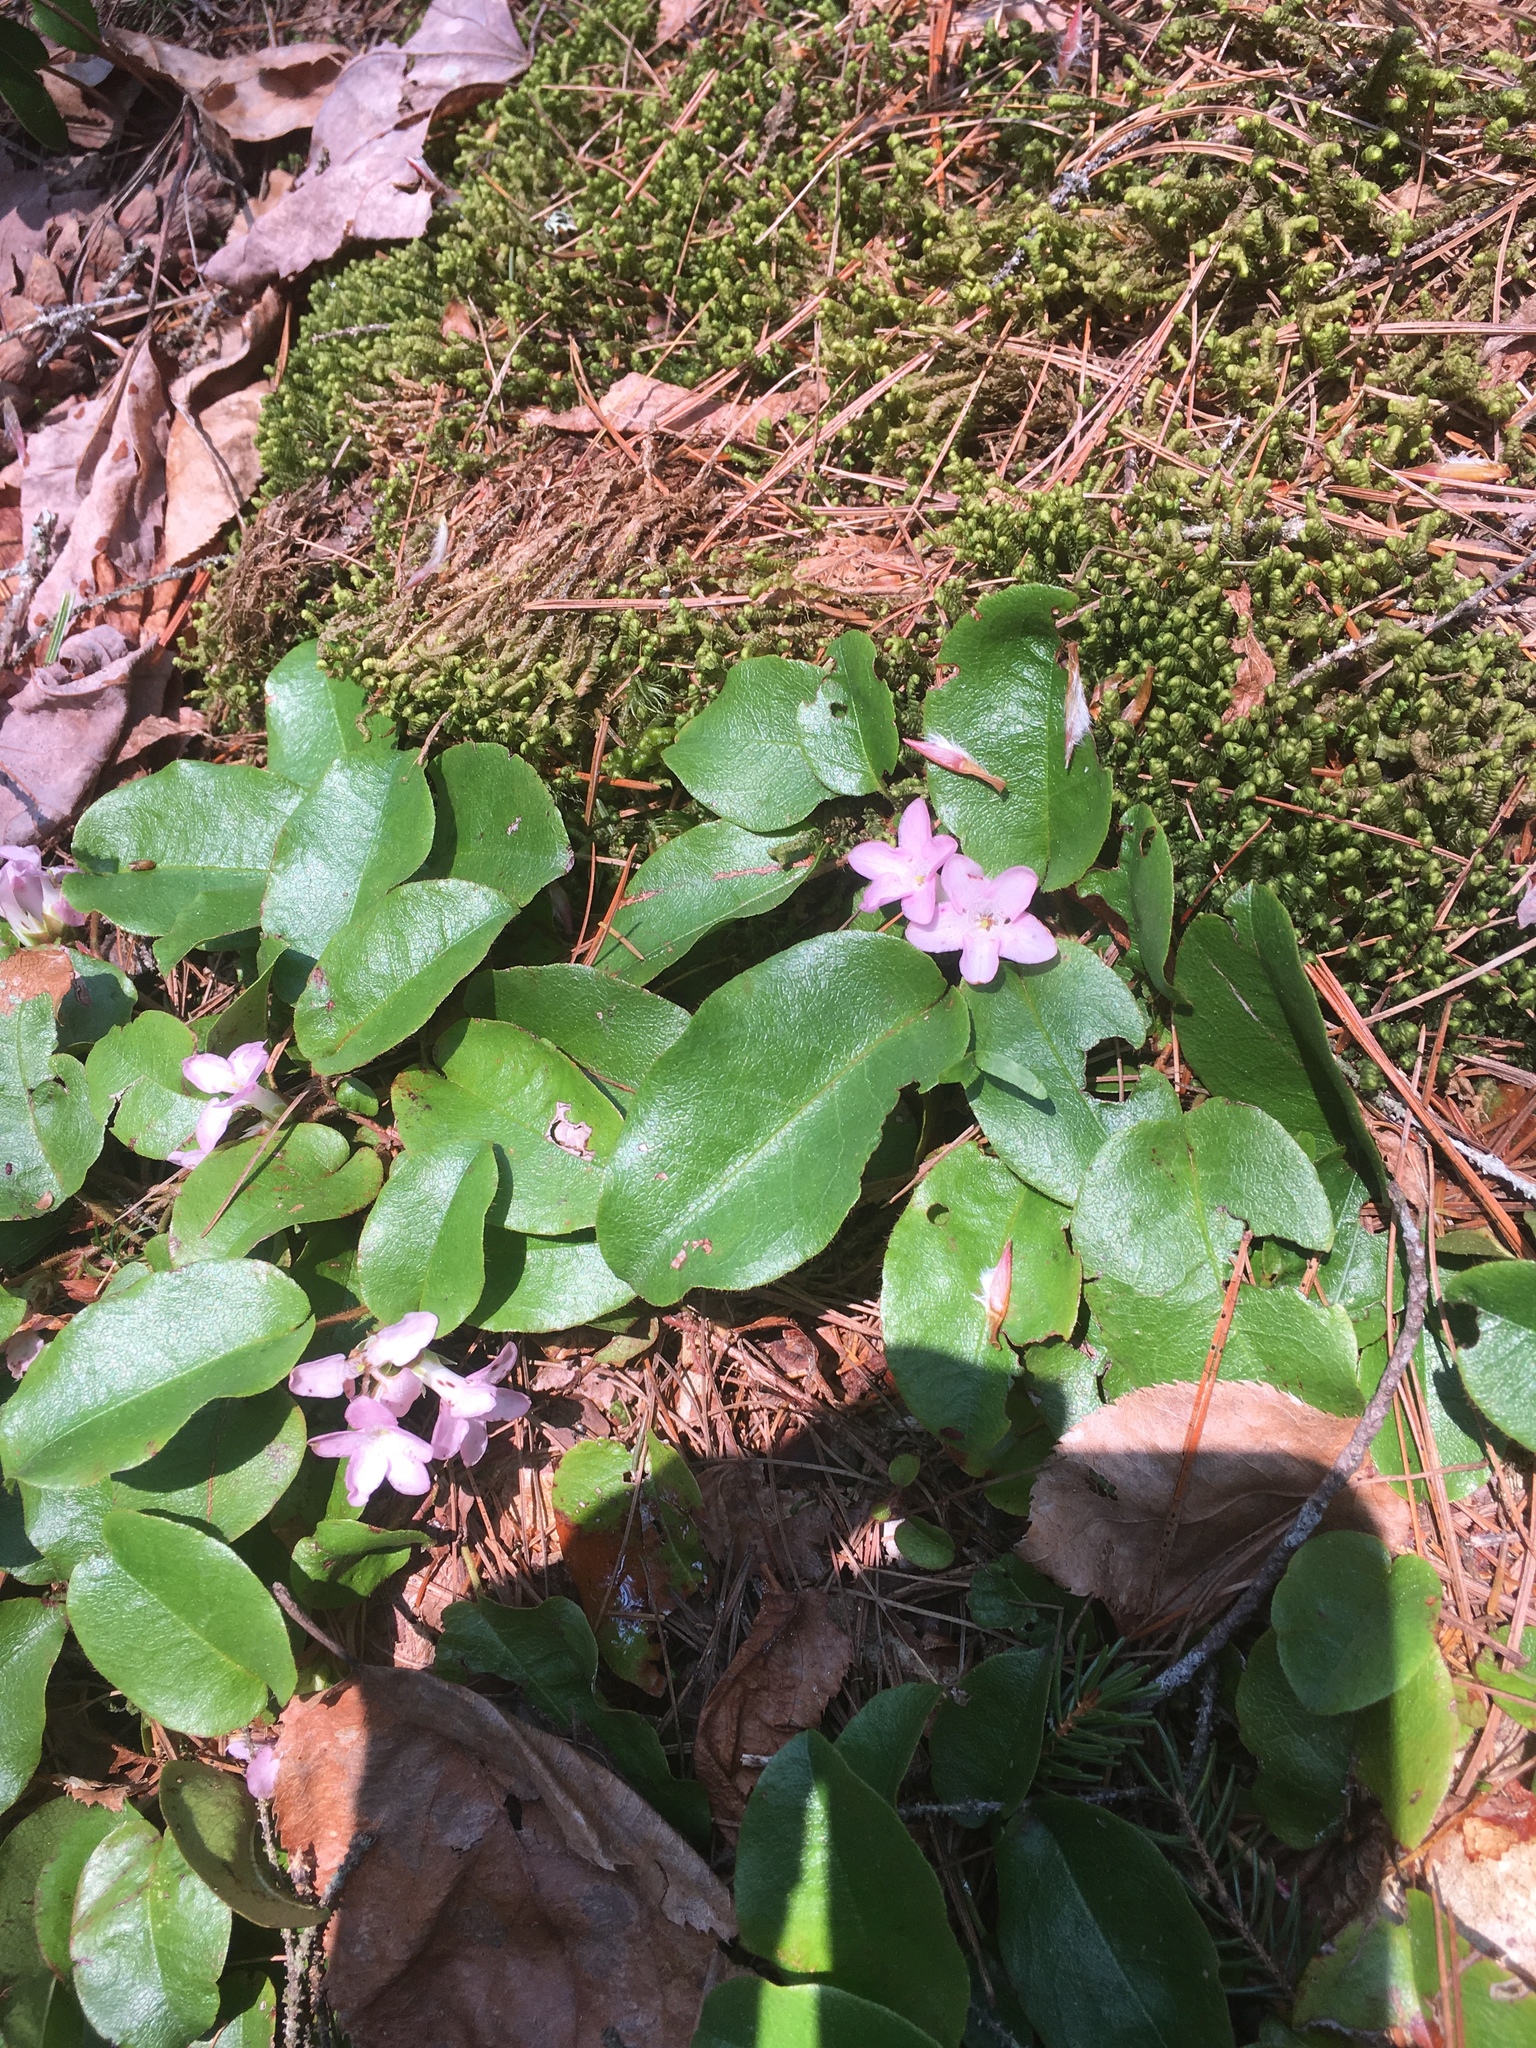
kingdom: Plantae
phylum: Tracheophyta
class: Magnoliopsida
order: Ericales
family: Ericaceae
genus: Epigaea
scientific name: Epigaea repens
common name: Gravelroot
